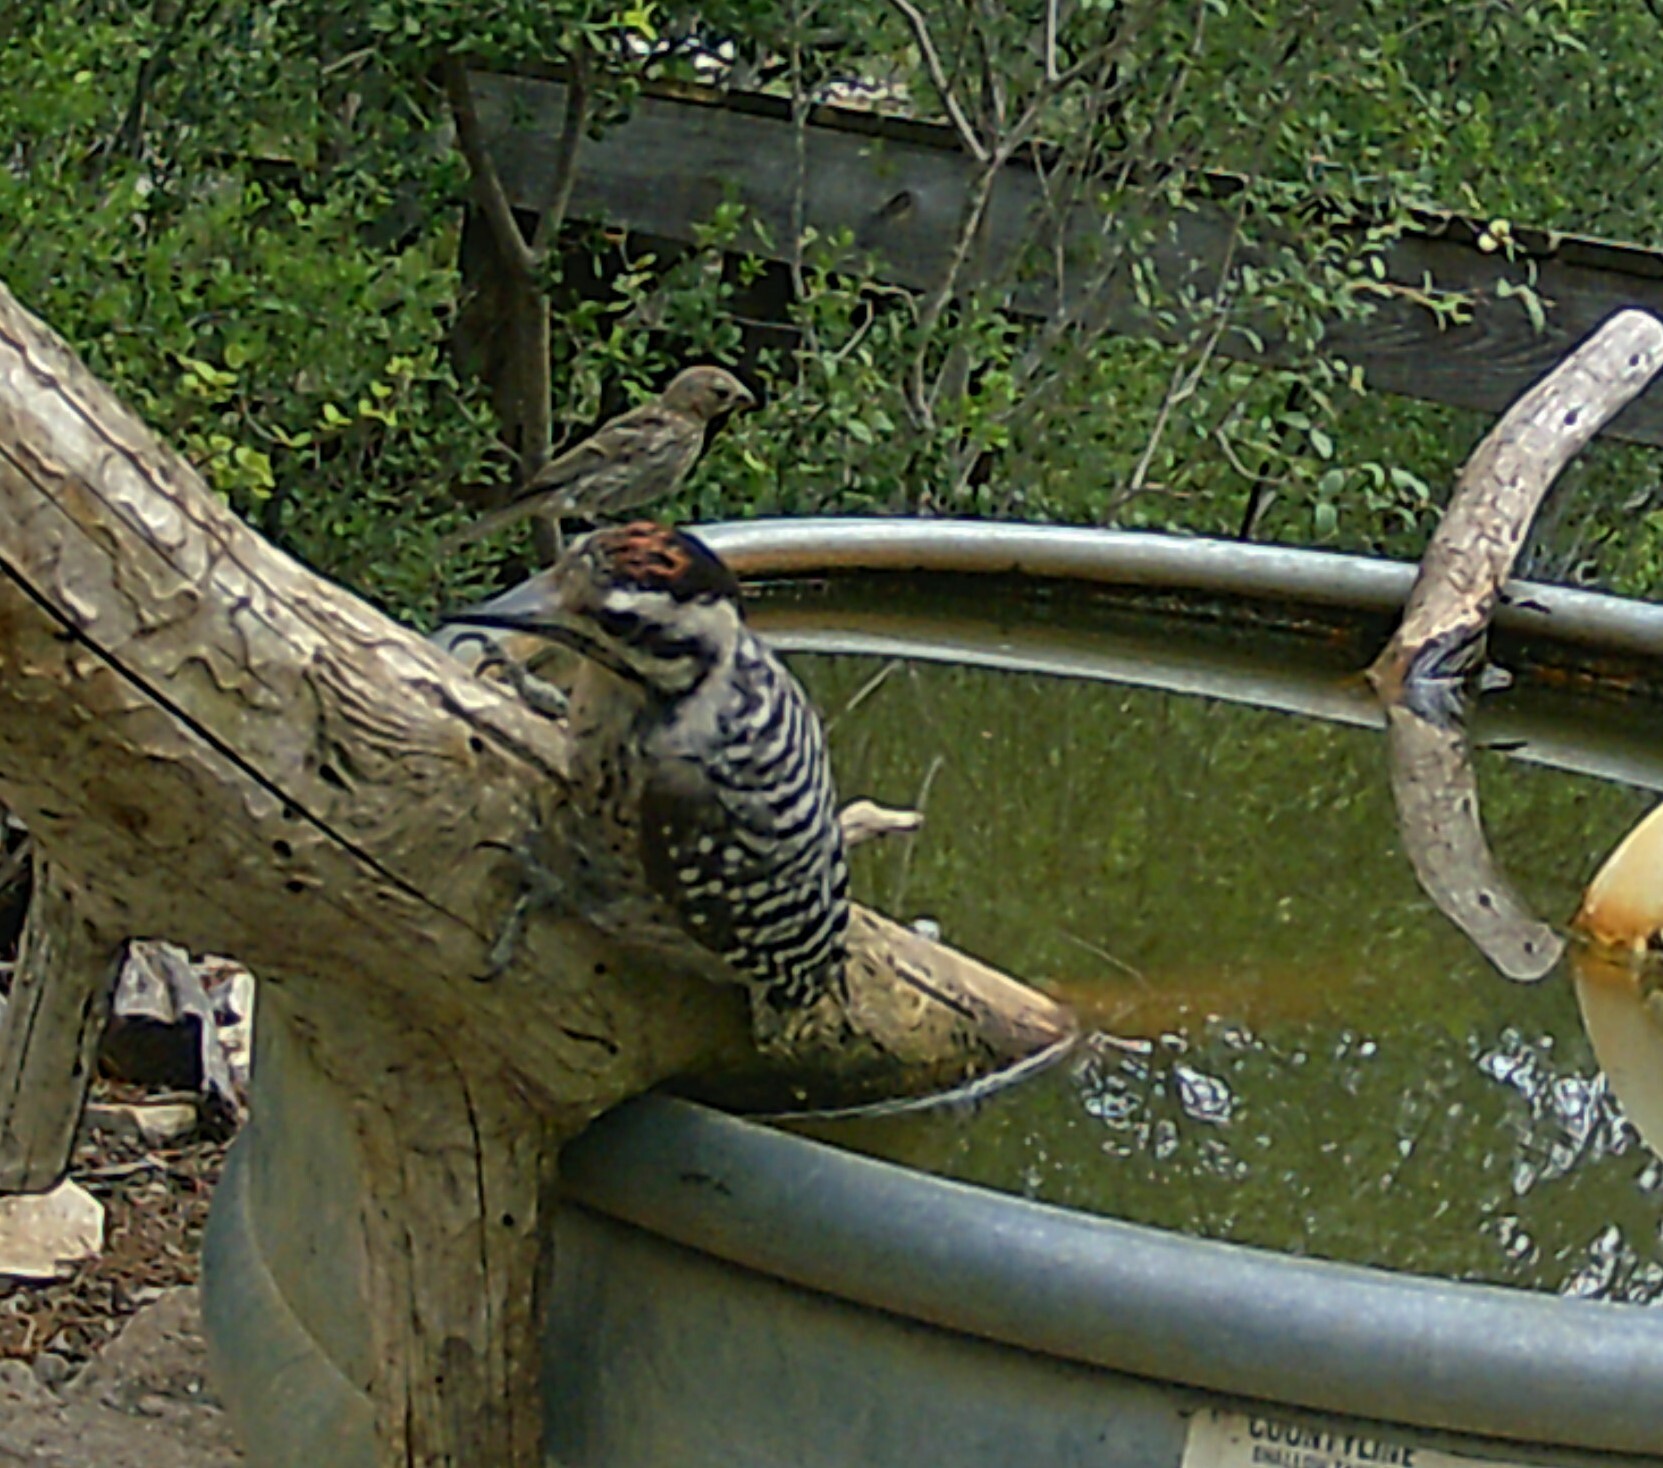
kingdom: Animalia
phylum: Chordata
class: Aves
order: Piciformes
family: Picidae
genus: Dryobates
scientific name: Dryobates scalaris
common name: Ladder-backed woodpecker
